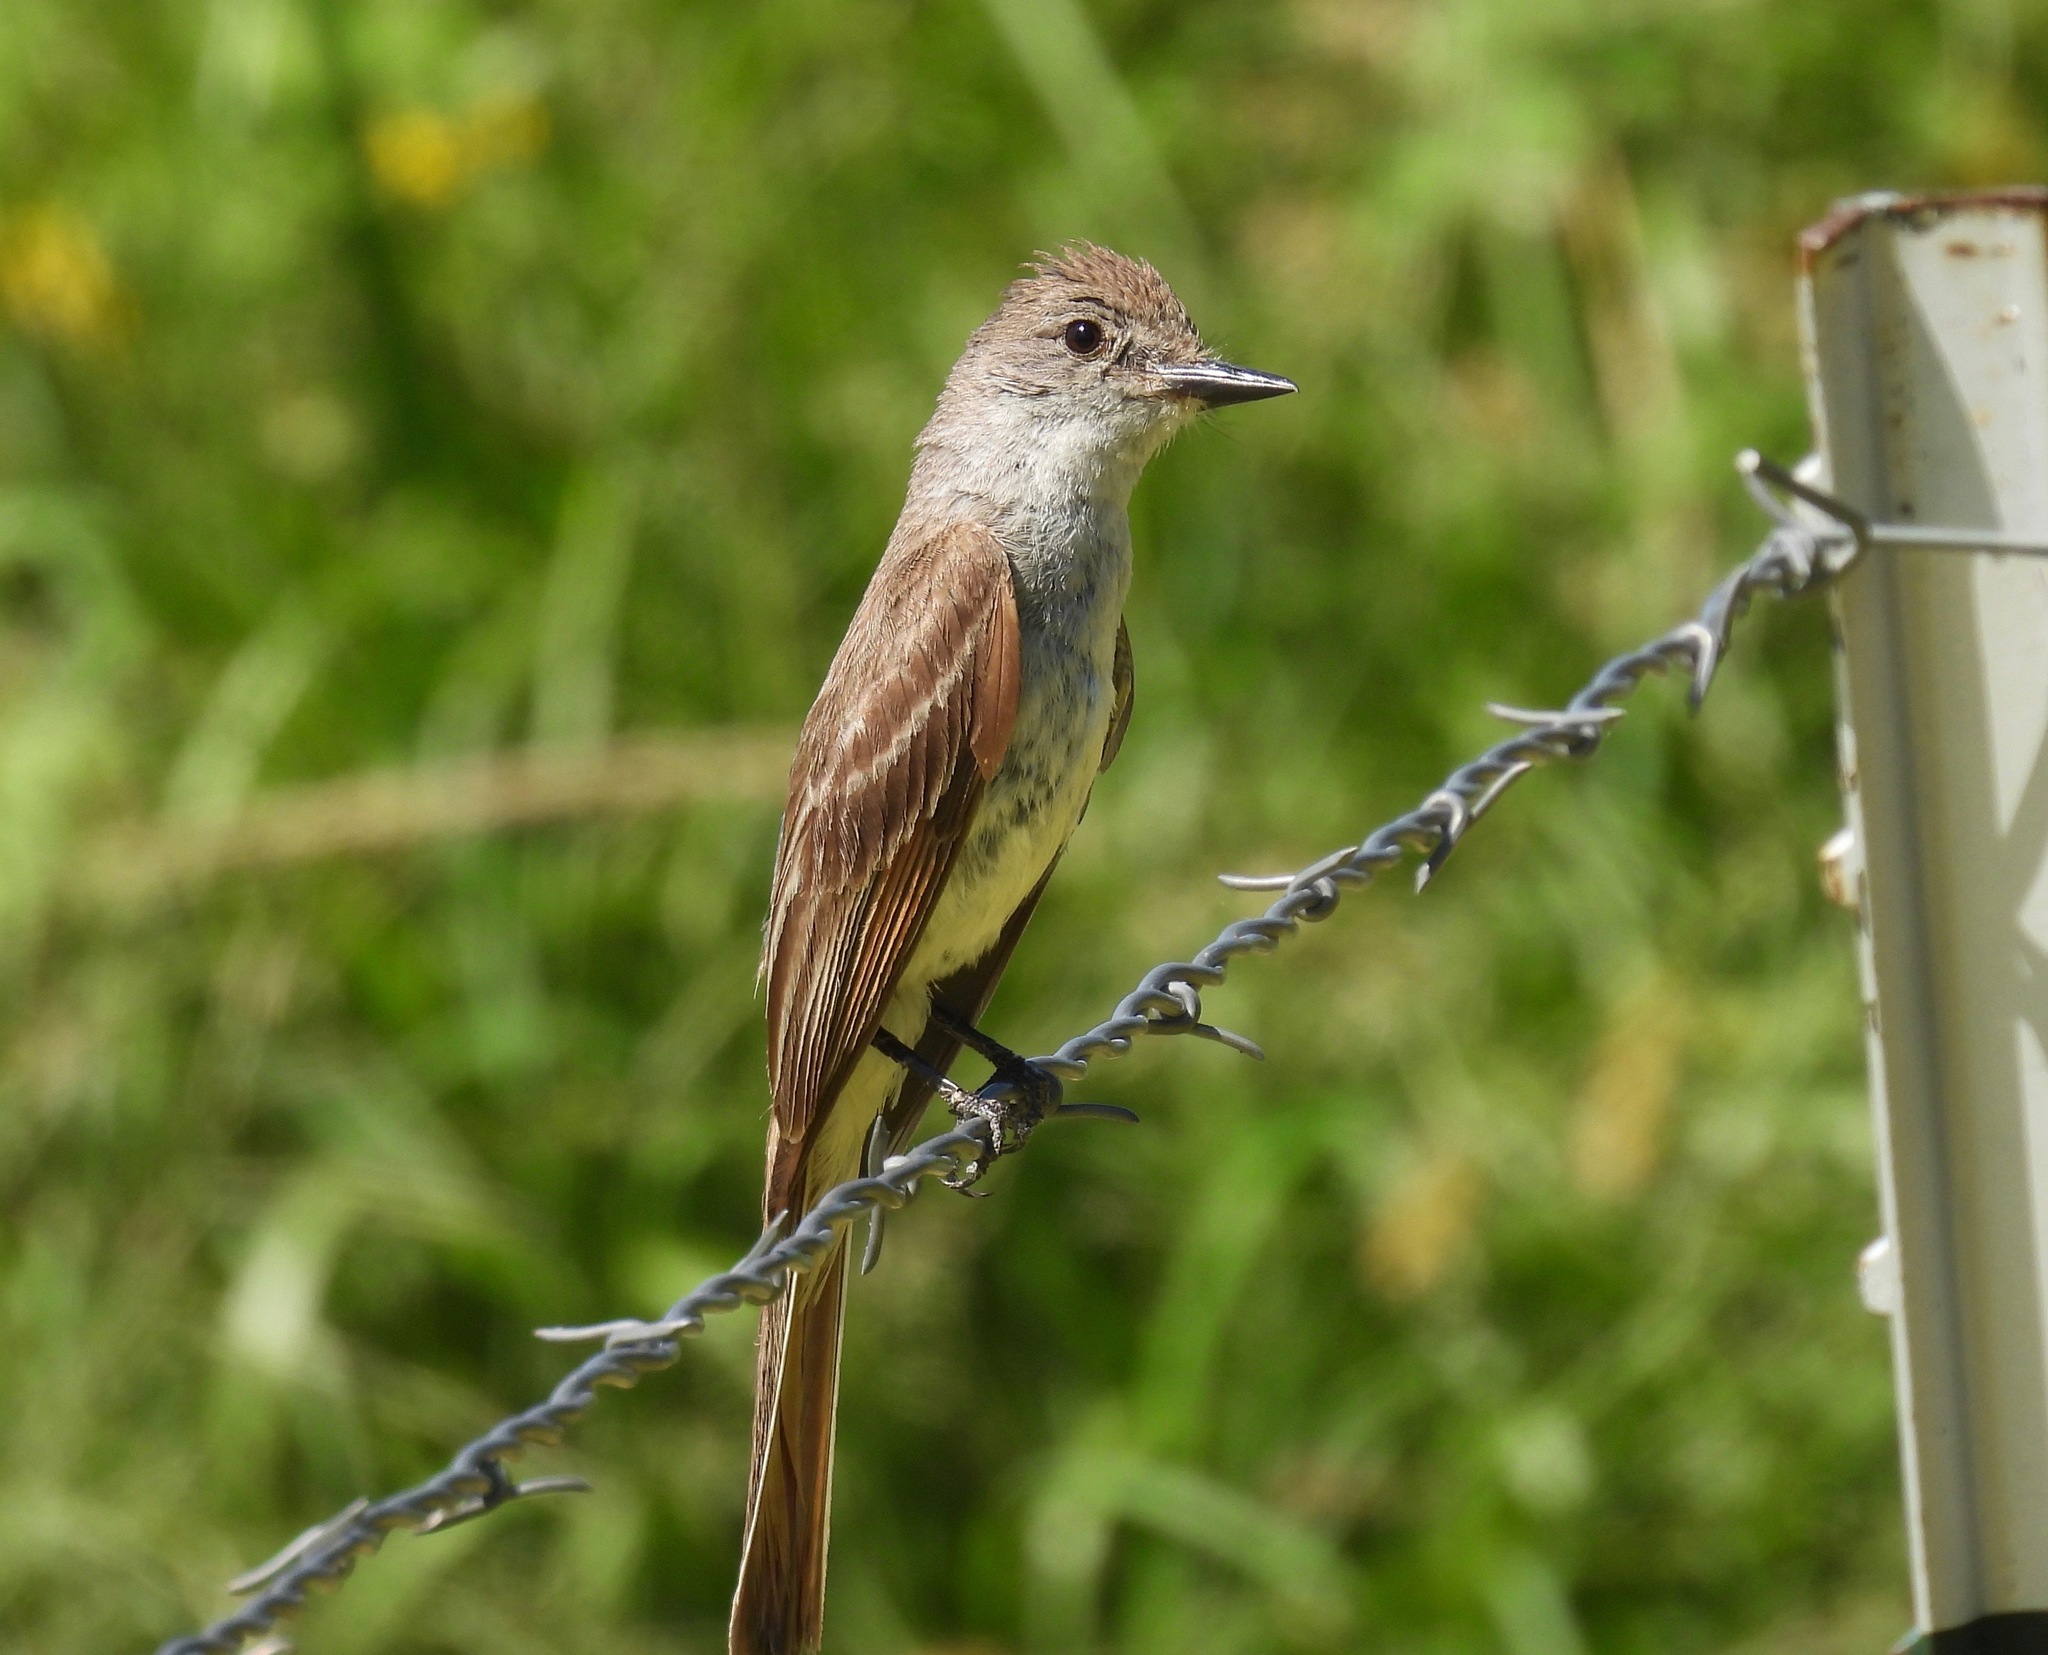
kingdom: Animalia
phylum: Chordata
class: Aves
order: Passeriformes
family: Tyrannidae
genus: Myiarchus
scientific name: Myiarchus cinerascens
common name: Ash-throated flycatcher
